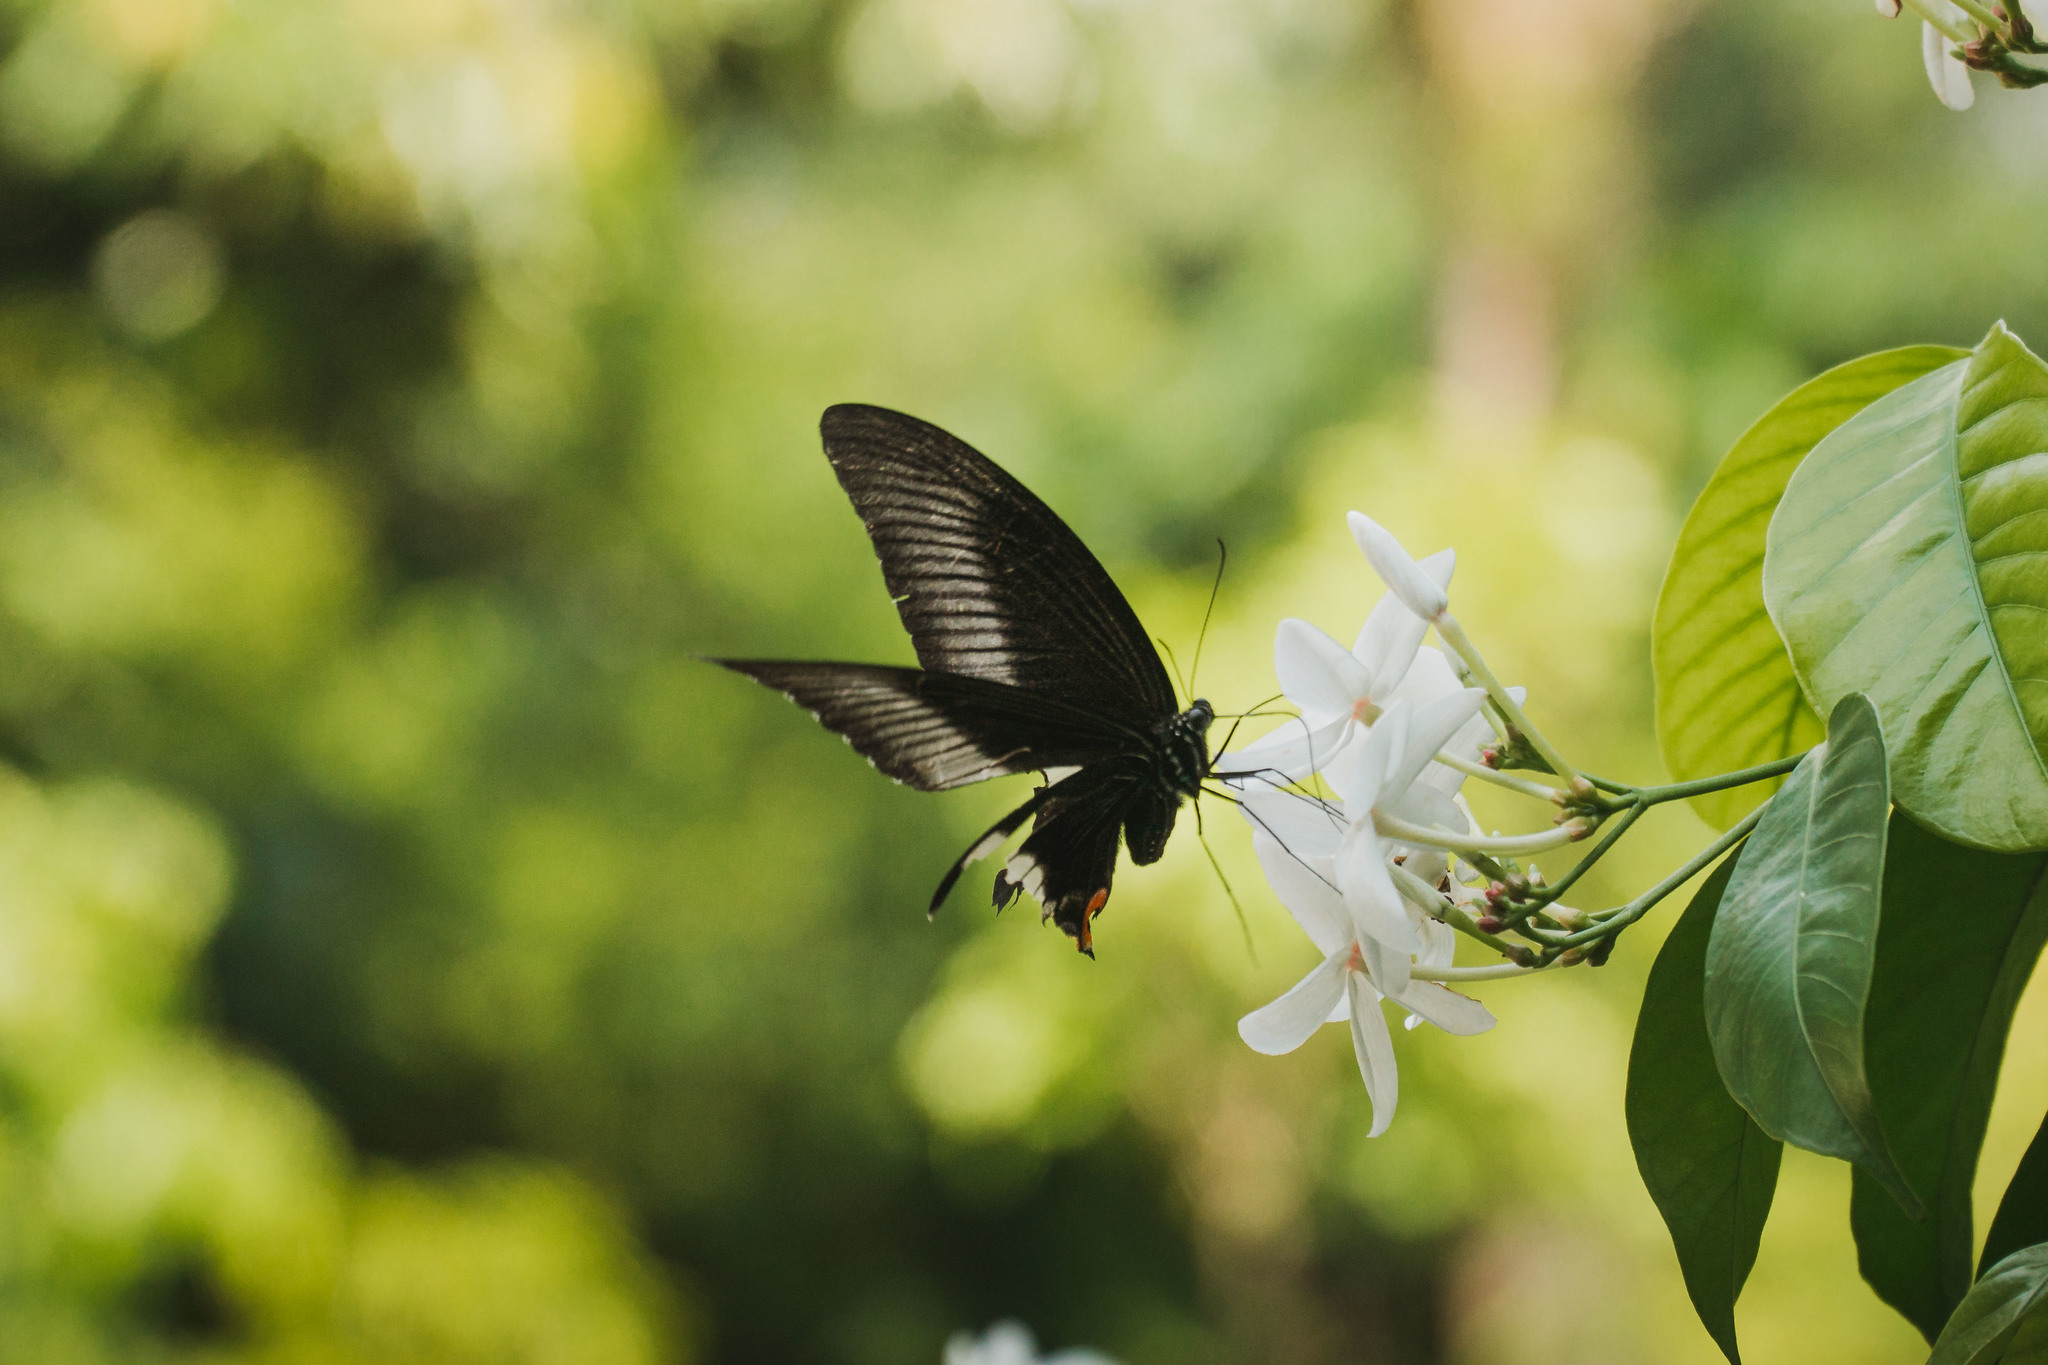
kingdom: Animalia
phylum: Arthropoda
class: Insecta
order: Lepidoptera
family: Papilionidae
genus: Papilio
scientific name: Papilio iswara
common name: Great helen swallowtail
